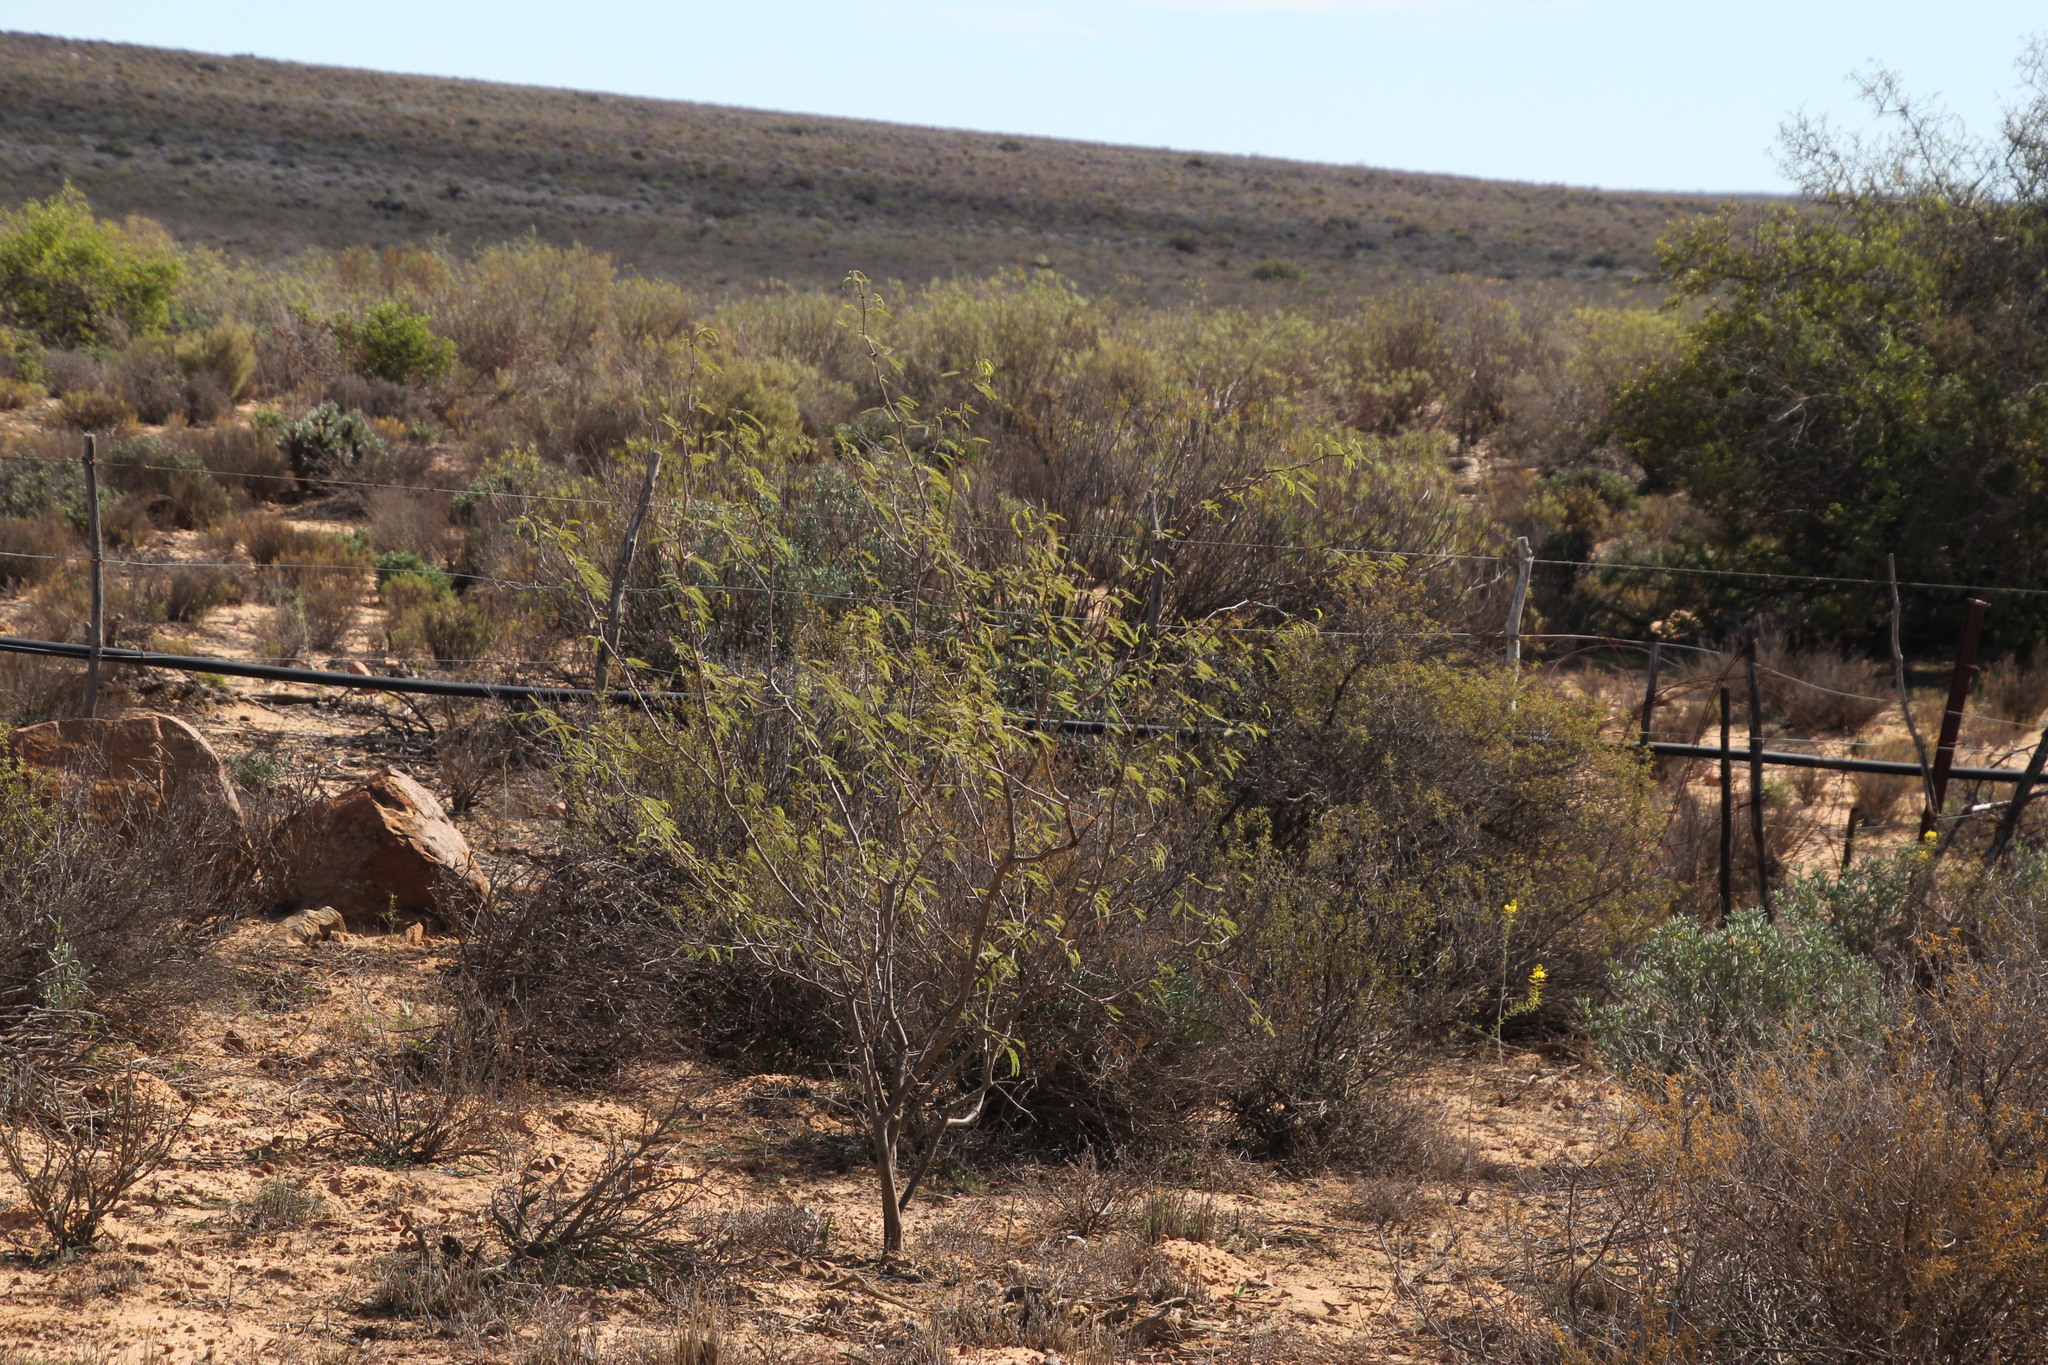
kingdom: Plantae
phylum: Tracheophyta
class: Magnoliopsida
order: Fabales
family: Fabaceae
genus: Prosopis
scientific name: Prosopis pubescens
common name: Screw-bean
